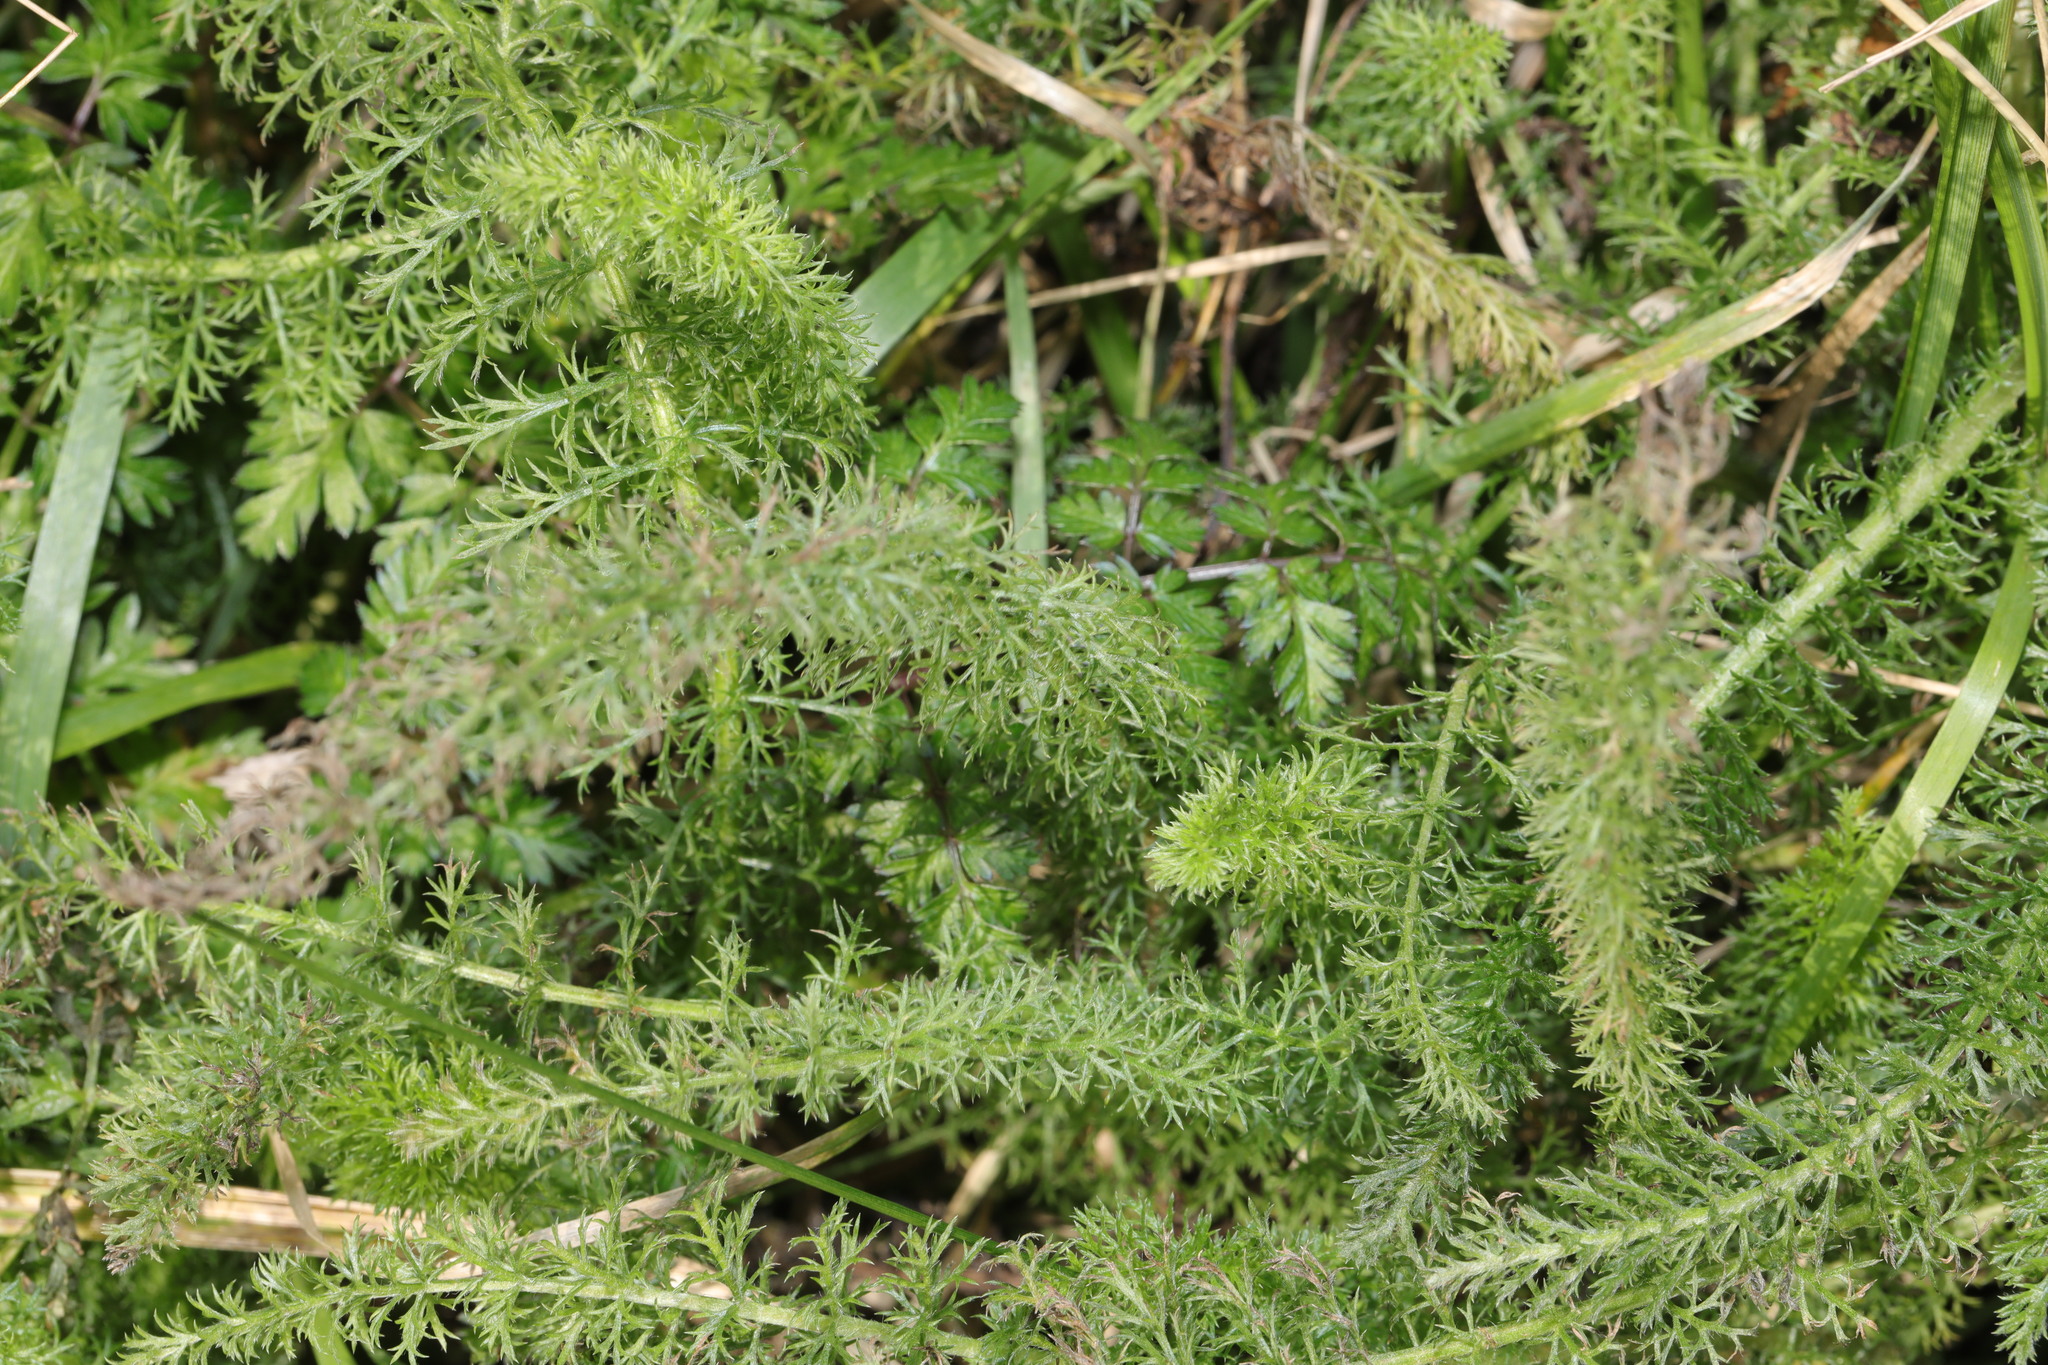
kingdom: Plantae
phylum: Tracheophyta
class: Magnoliopsida
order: Asterales
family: Asteraceae
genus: Achillea
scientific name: Achillea millefolium
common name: Yarrow
